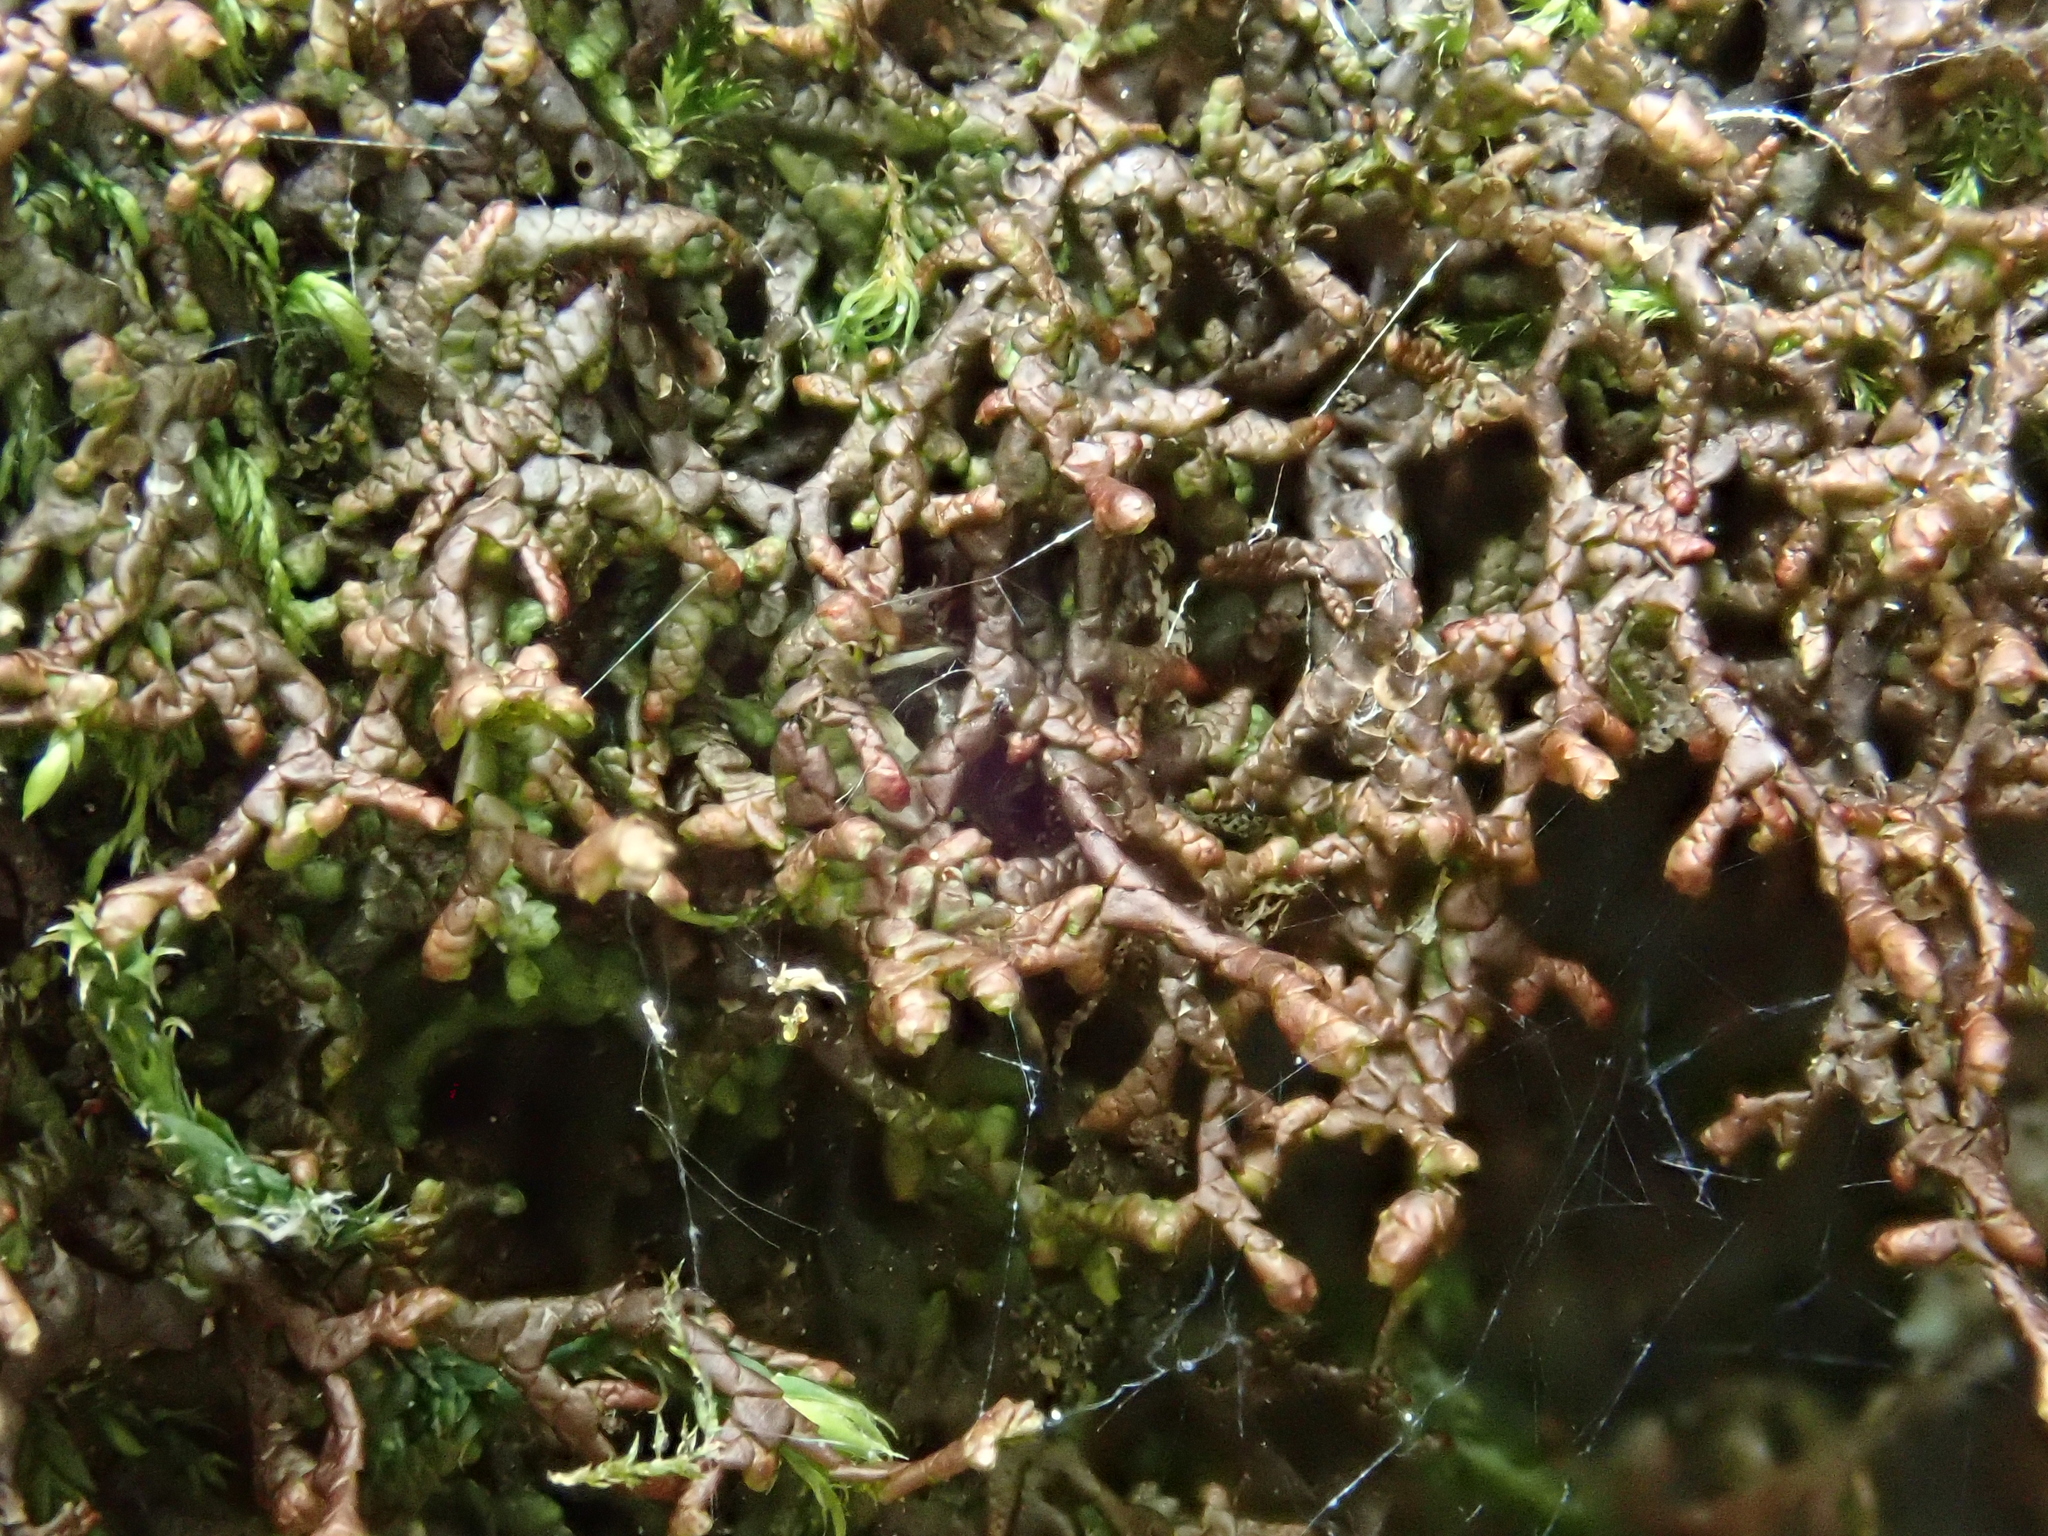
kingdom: Plantae
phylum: Marchantiophyta
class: Jungermanniopsida
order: Porellales
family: Frullaniaceae
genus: Frullania
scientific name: Frullania tamarisci
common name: Tamarisk scalewort
